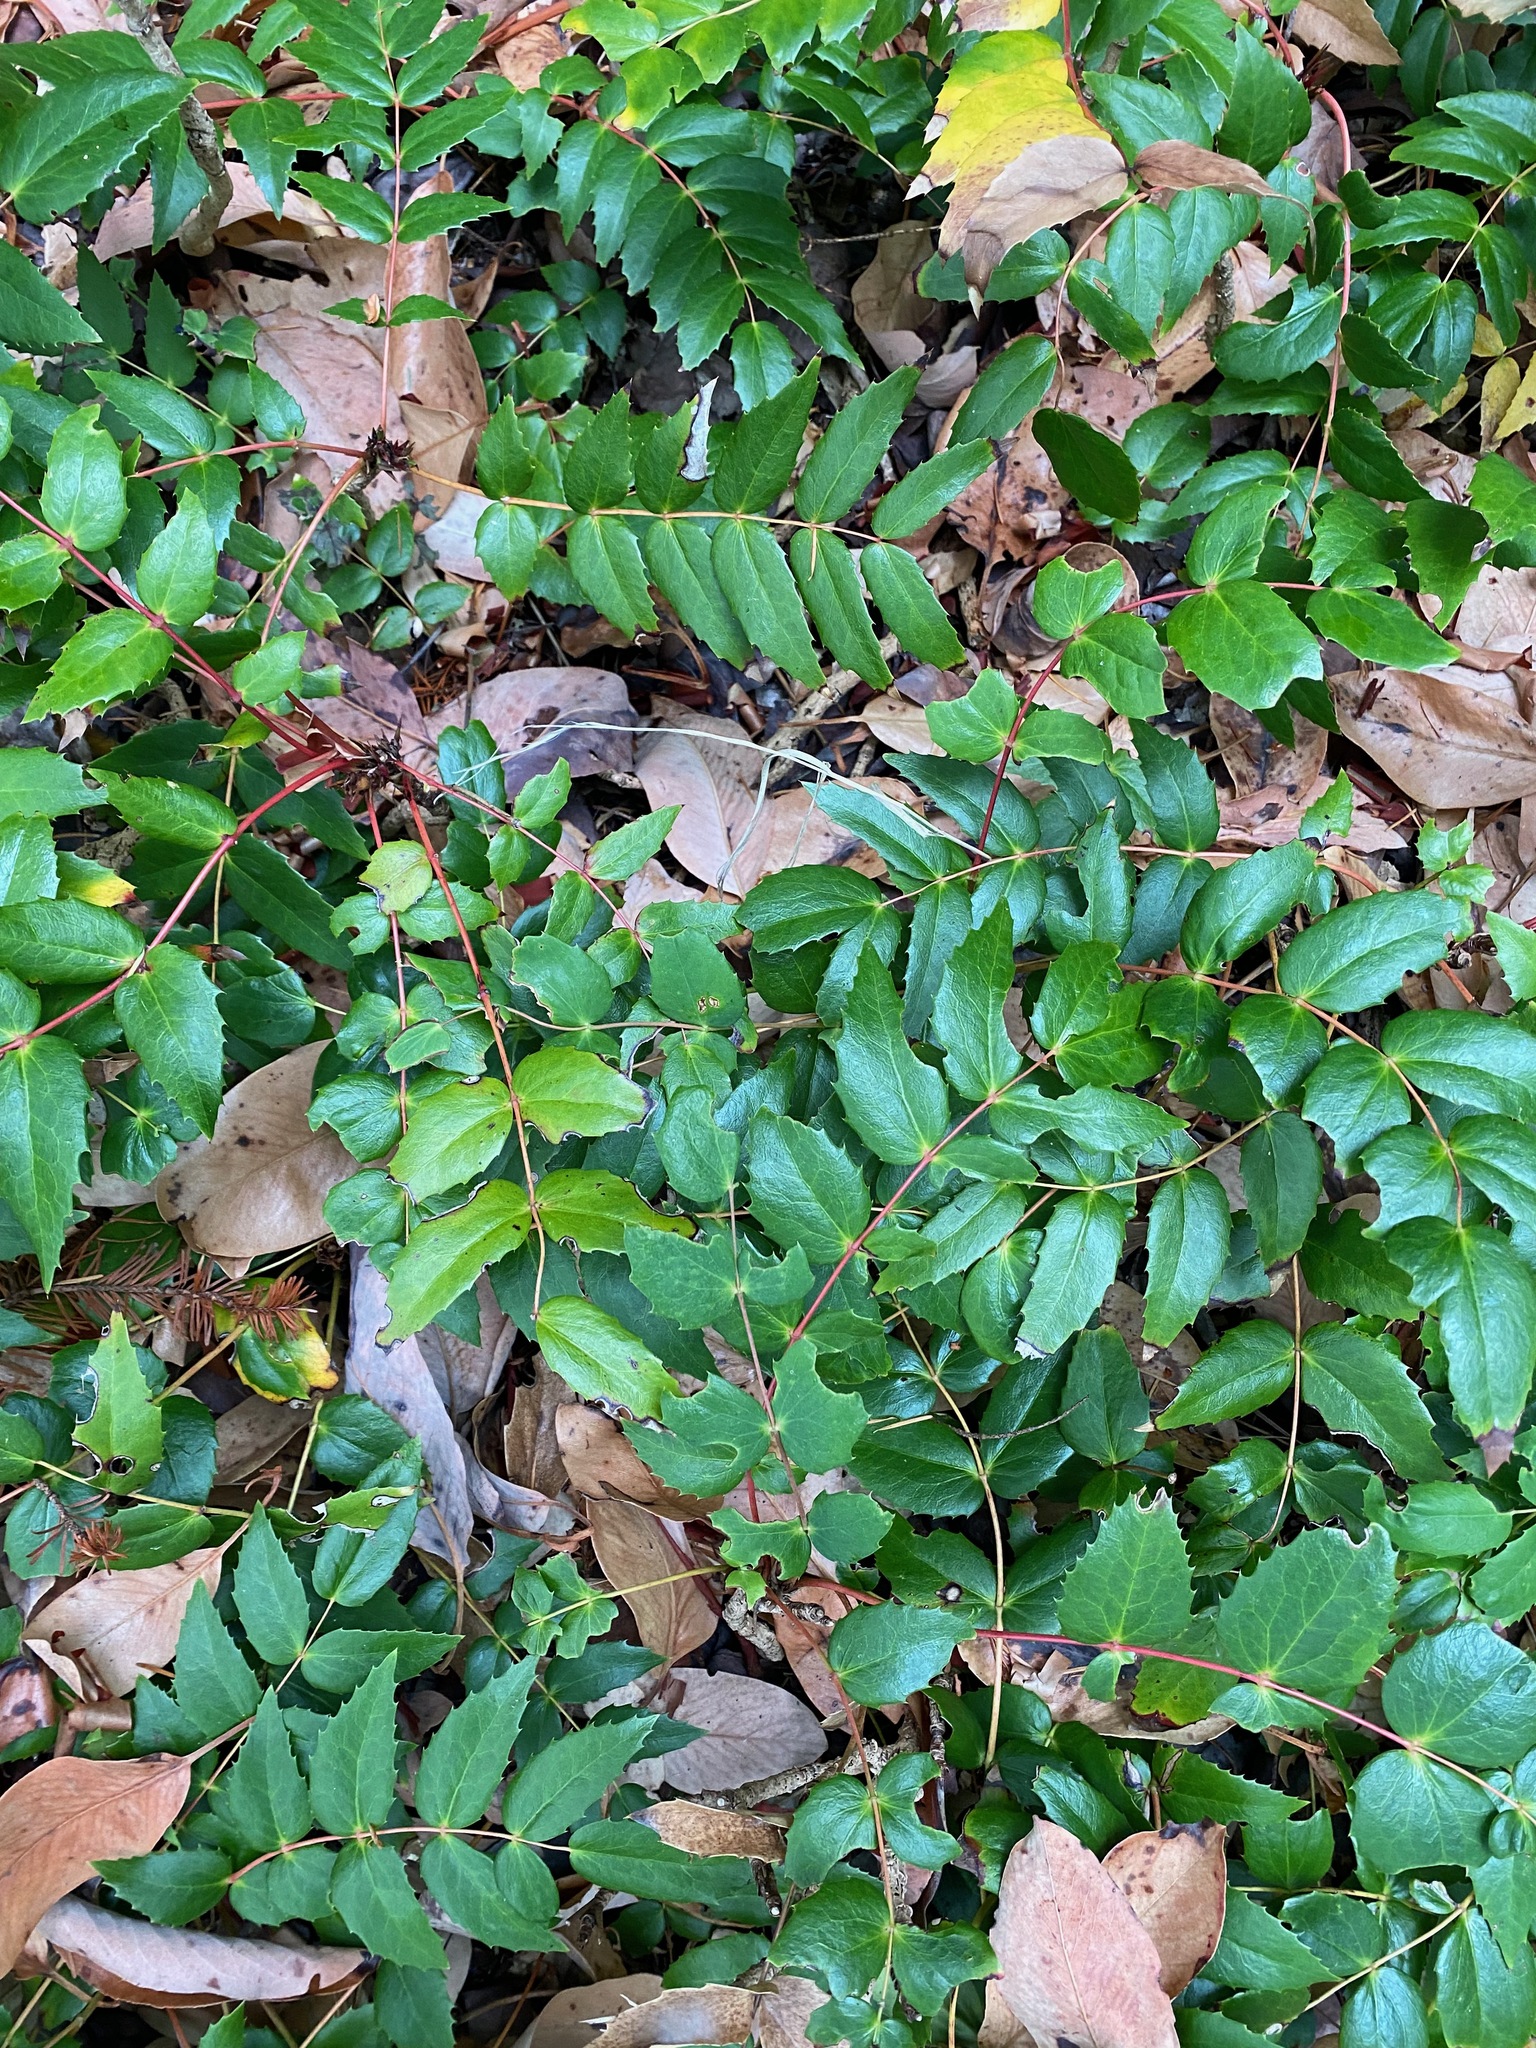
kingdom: Plantae
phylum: Tracheophyta
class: Magnoliopsida
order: Ranunculales
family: Berberidaceae
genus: Mahonia
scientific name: Mahonia nervosa
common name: Cascade oregon-grape
